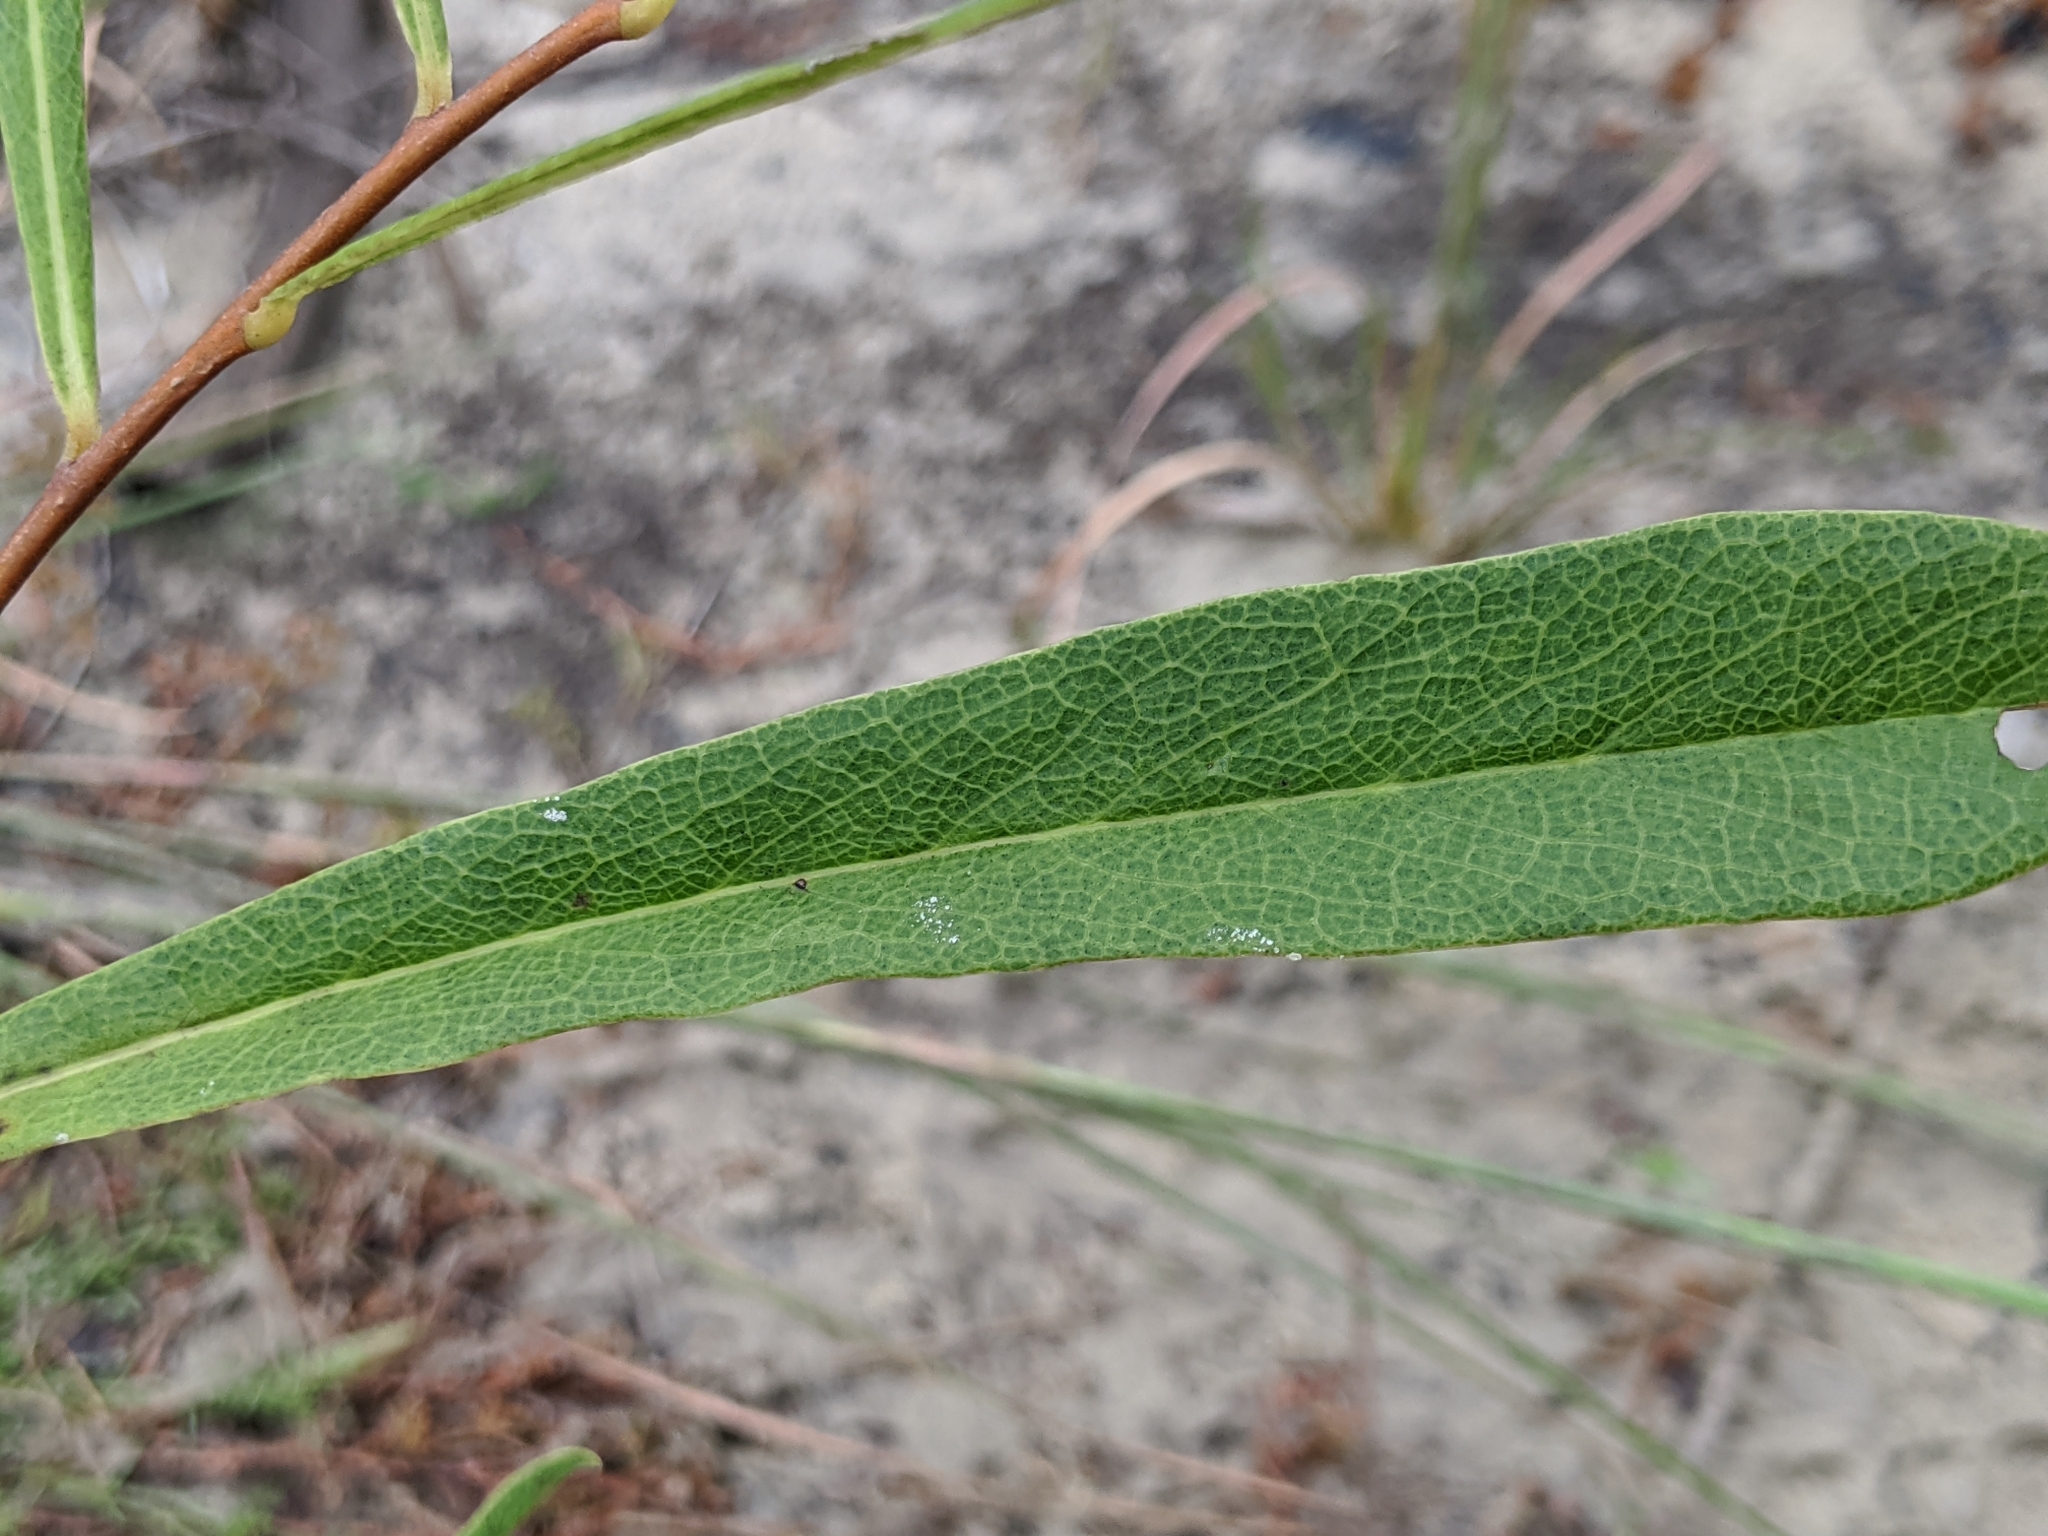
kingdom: Plantae
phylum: Tracheophyta
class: Magnoliopsida
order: Magnoliales
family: Annonaceae
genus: Asimina
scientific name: Asimina longifolia
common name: Polecatbush
